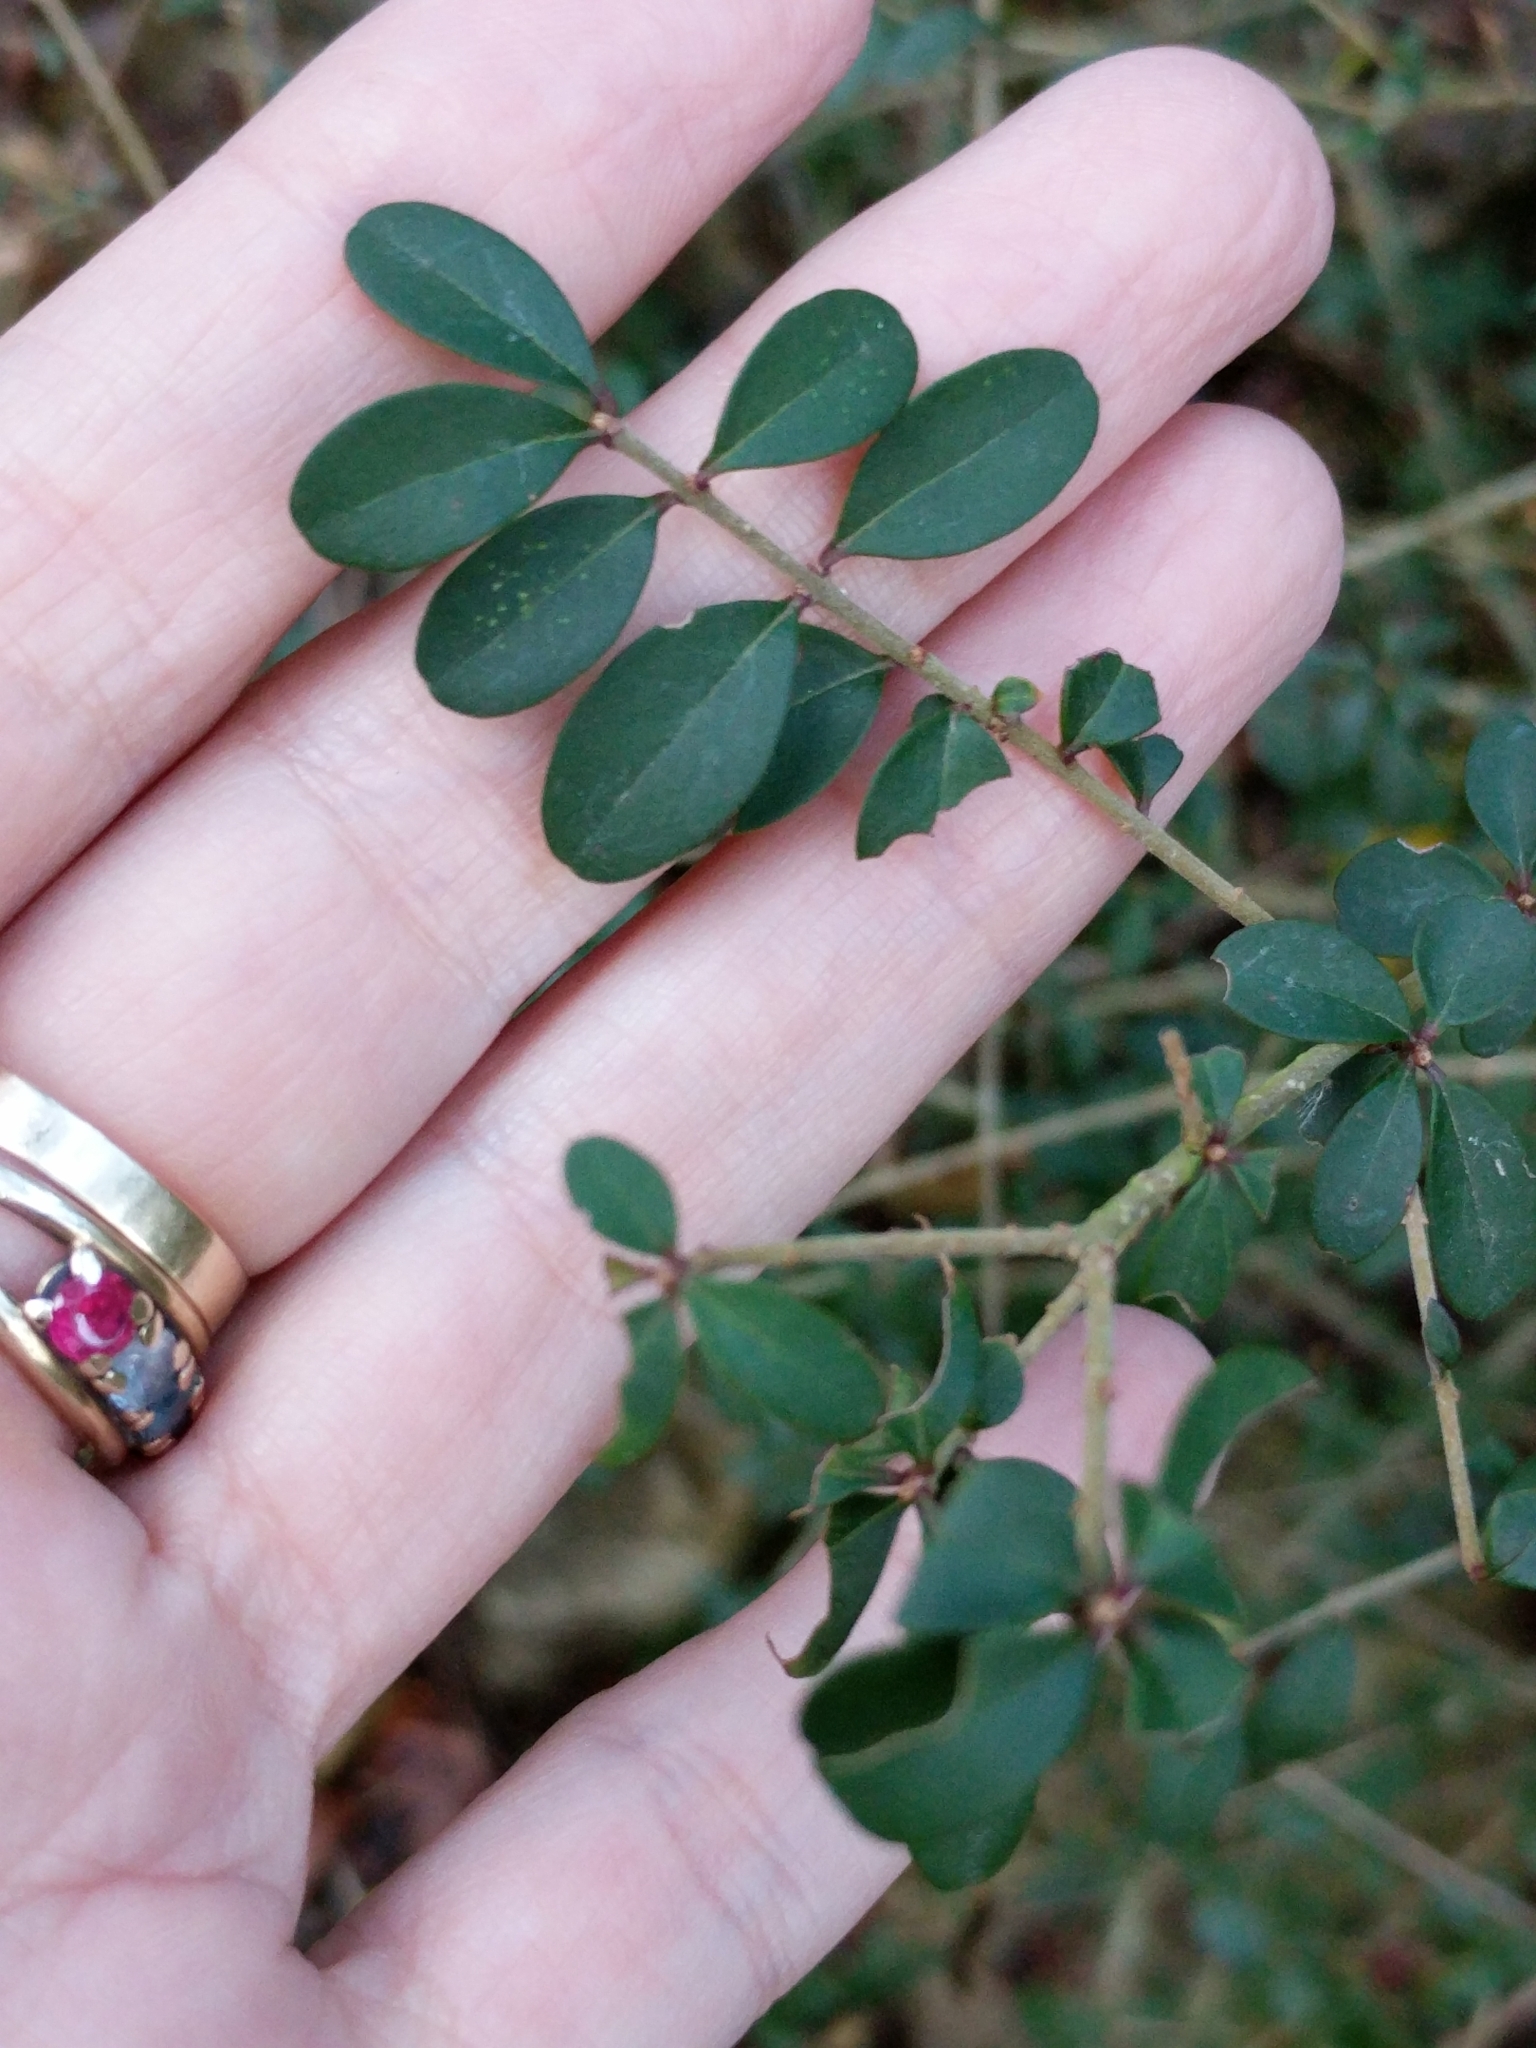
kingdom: Plantae
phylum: Tracheophyta
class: Magnoliopsida
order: Lamiales
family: Oleaceae
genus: Ligustrum
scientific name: Ligustrum quihoui
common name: Waxyleaf privet
